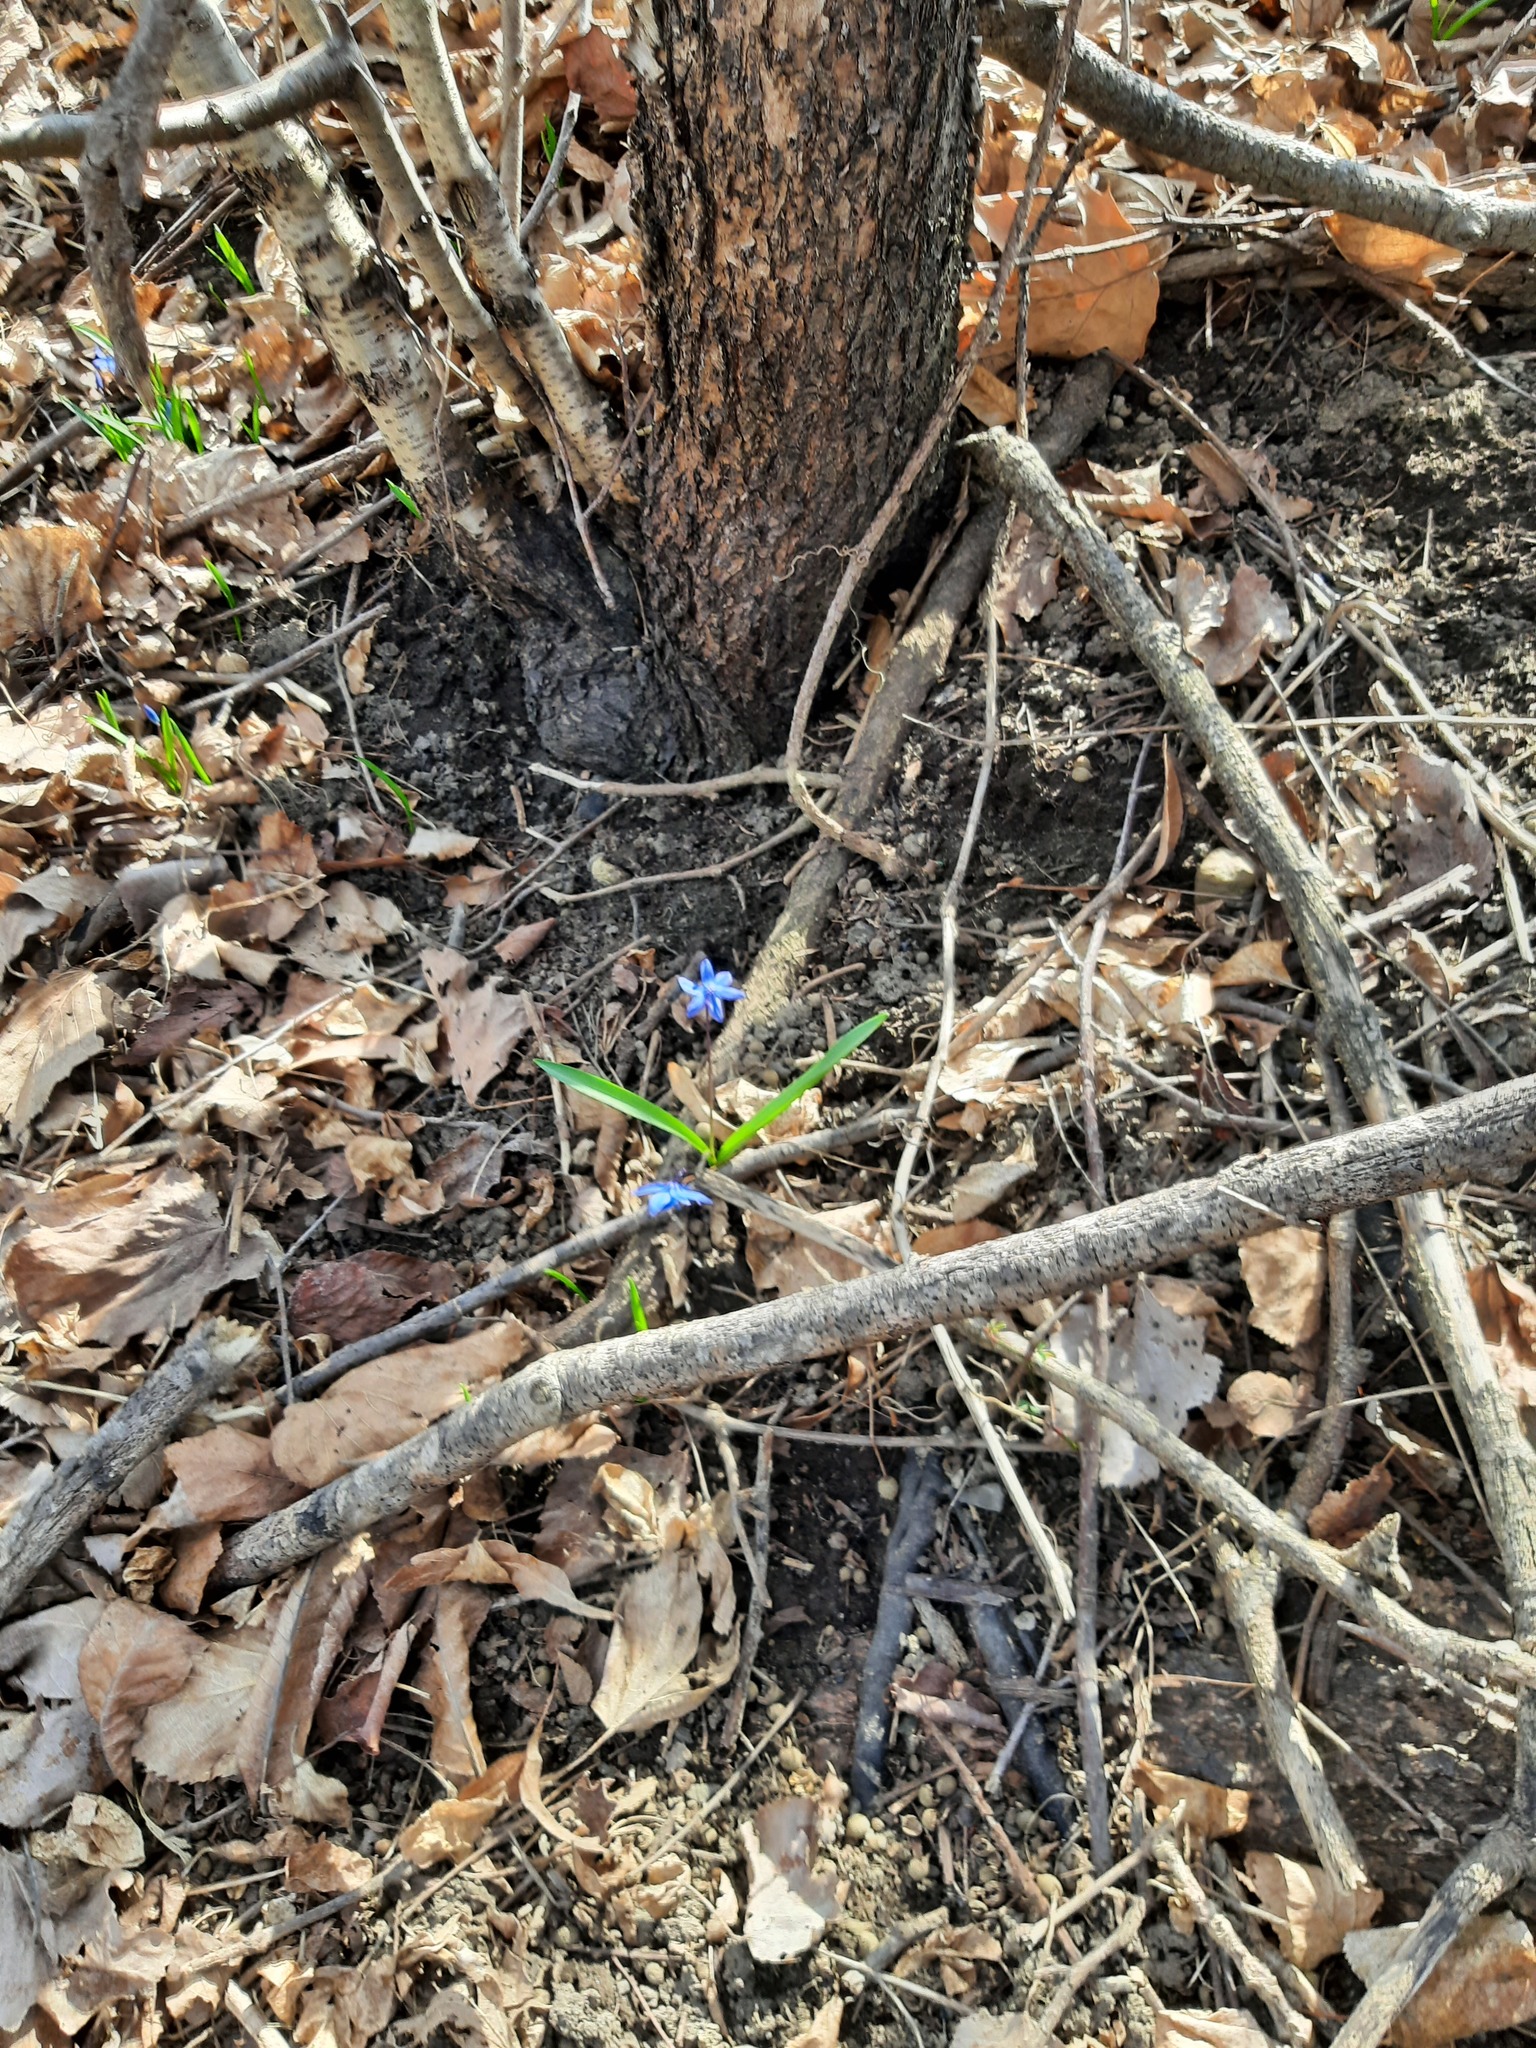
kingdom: Plantae
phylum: Tracheophyta
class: Liliopsida
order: Asparagales
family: Asparagaceae
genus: Scilla
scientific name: Scilla siberica
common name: Siberian squill
